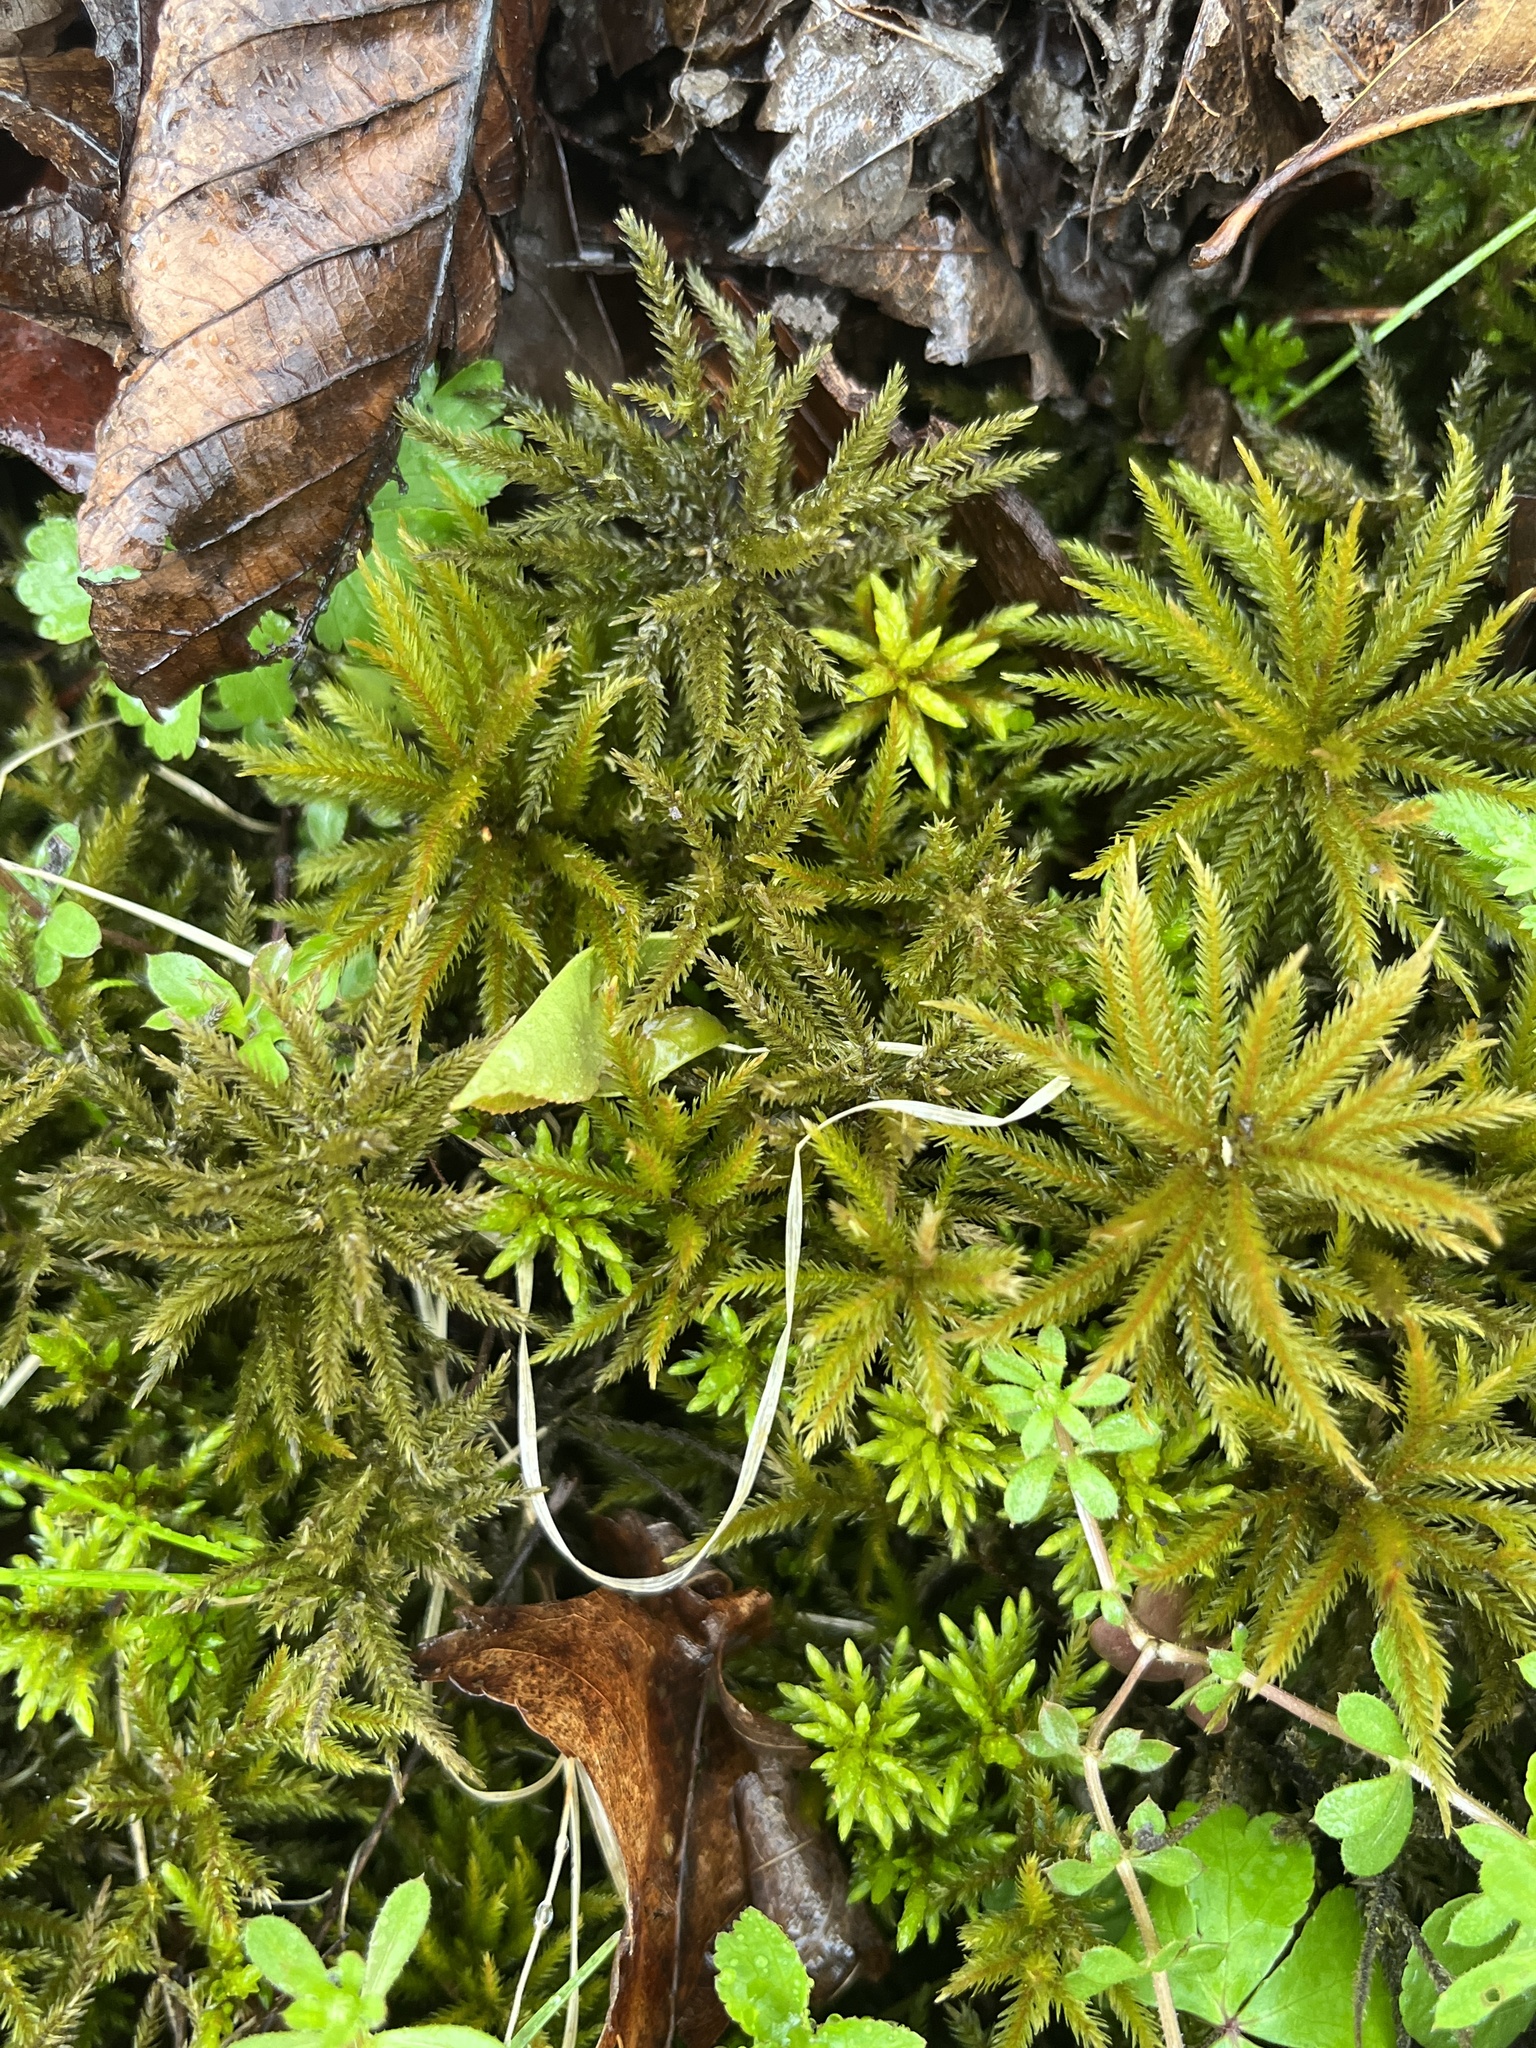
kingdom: Plantae
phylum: Bryophyta
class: Bryopsida
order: Hypnales
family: Climaciaceae
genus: Climacium
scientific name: Climacium americanum
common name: American tree moss
